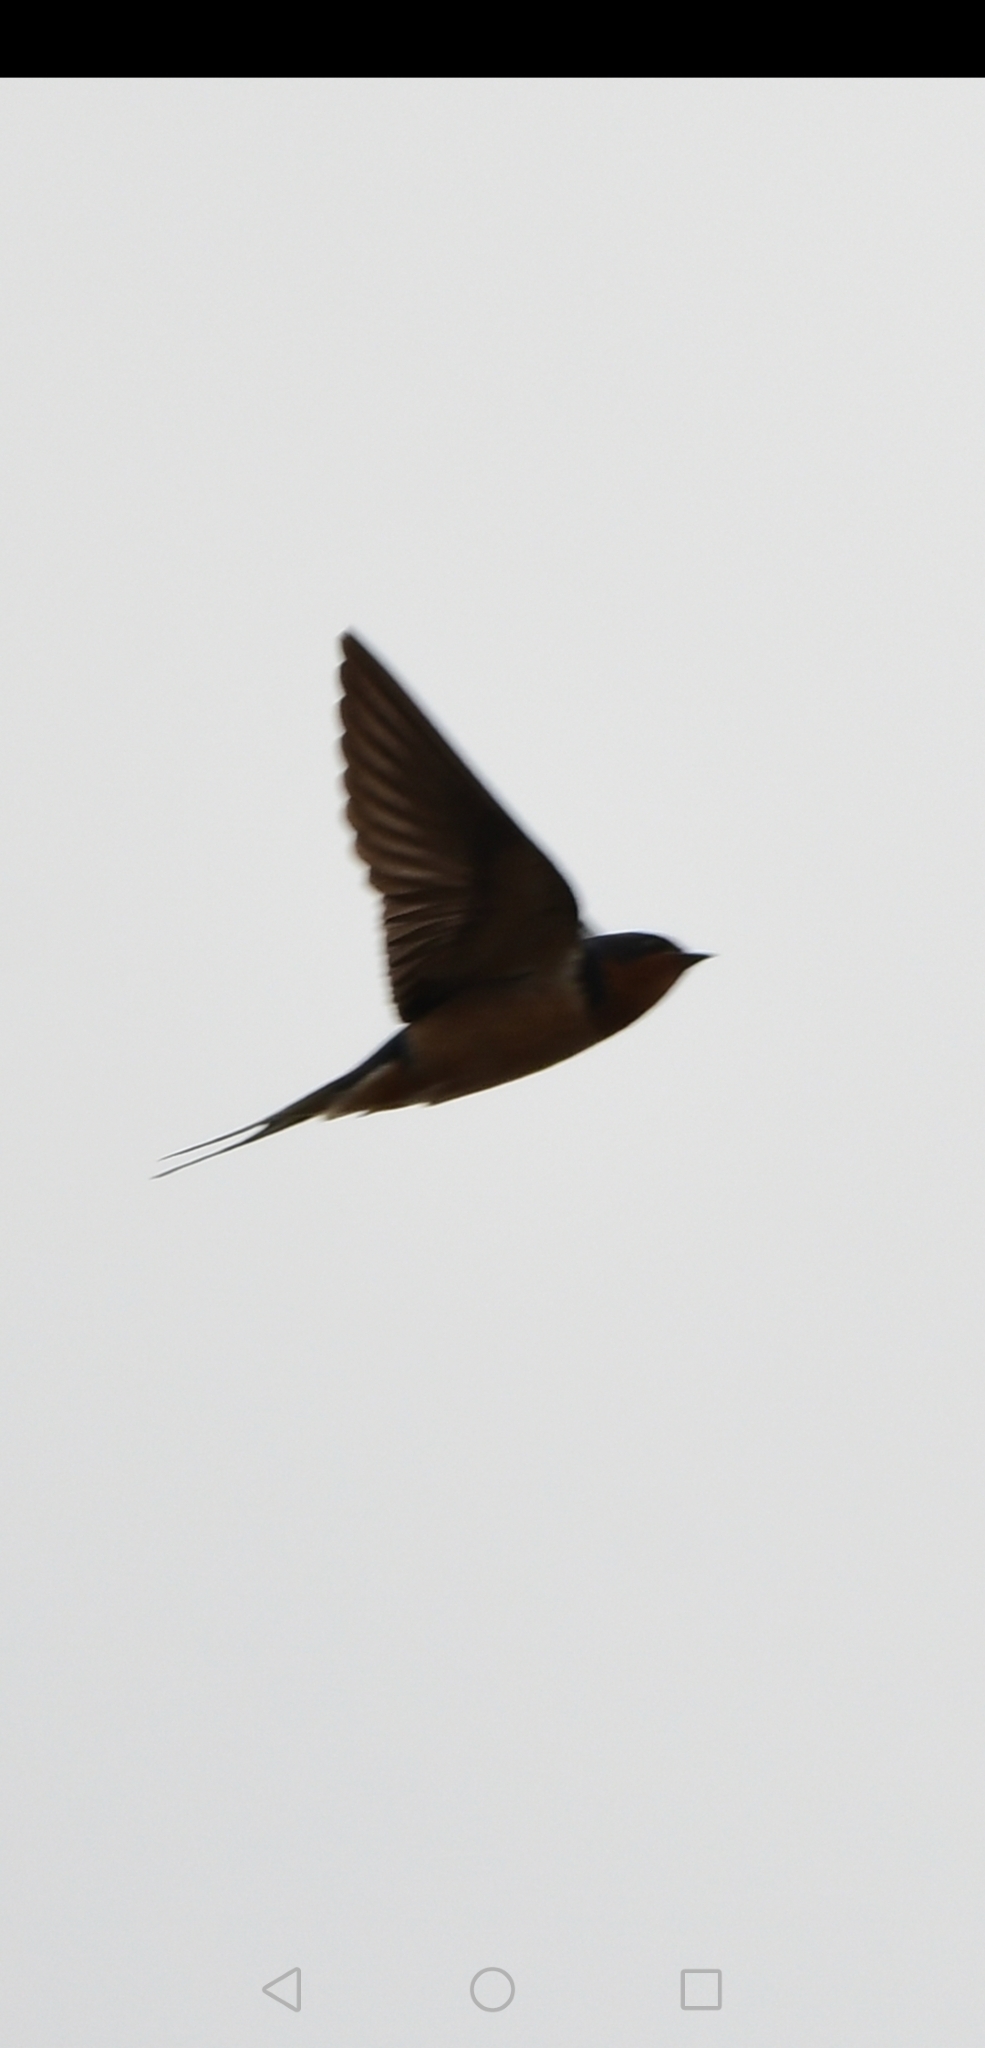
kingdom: Animalia
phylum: Chordata
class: Aves
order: Passeriformes
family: Hirundinidae
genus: Hirundo
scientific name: Hirundo rustica
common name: Barn swallow
